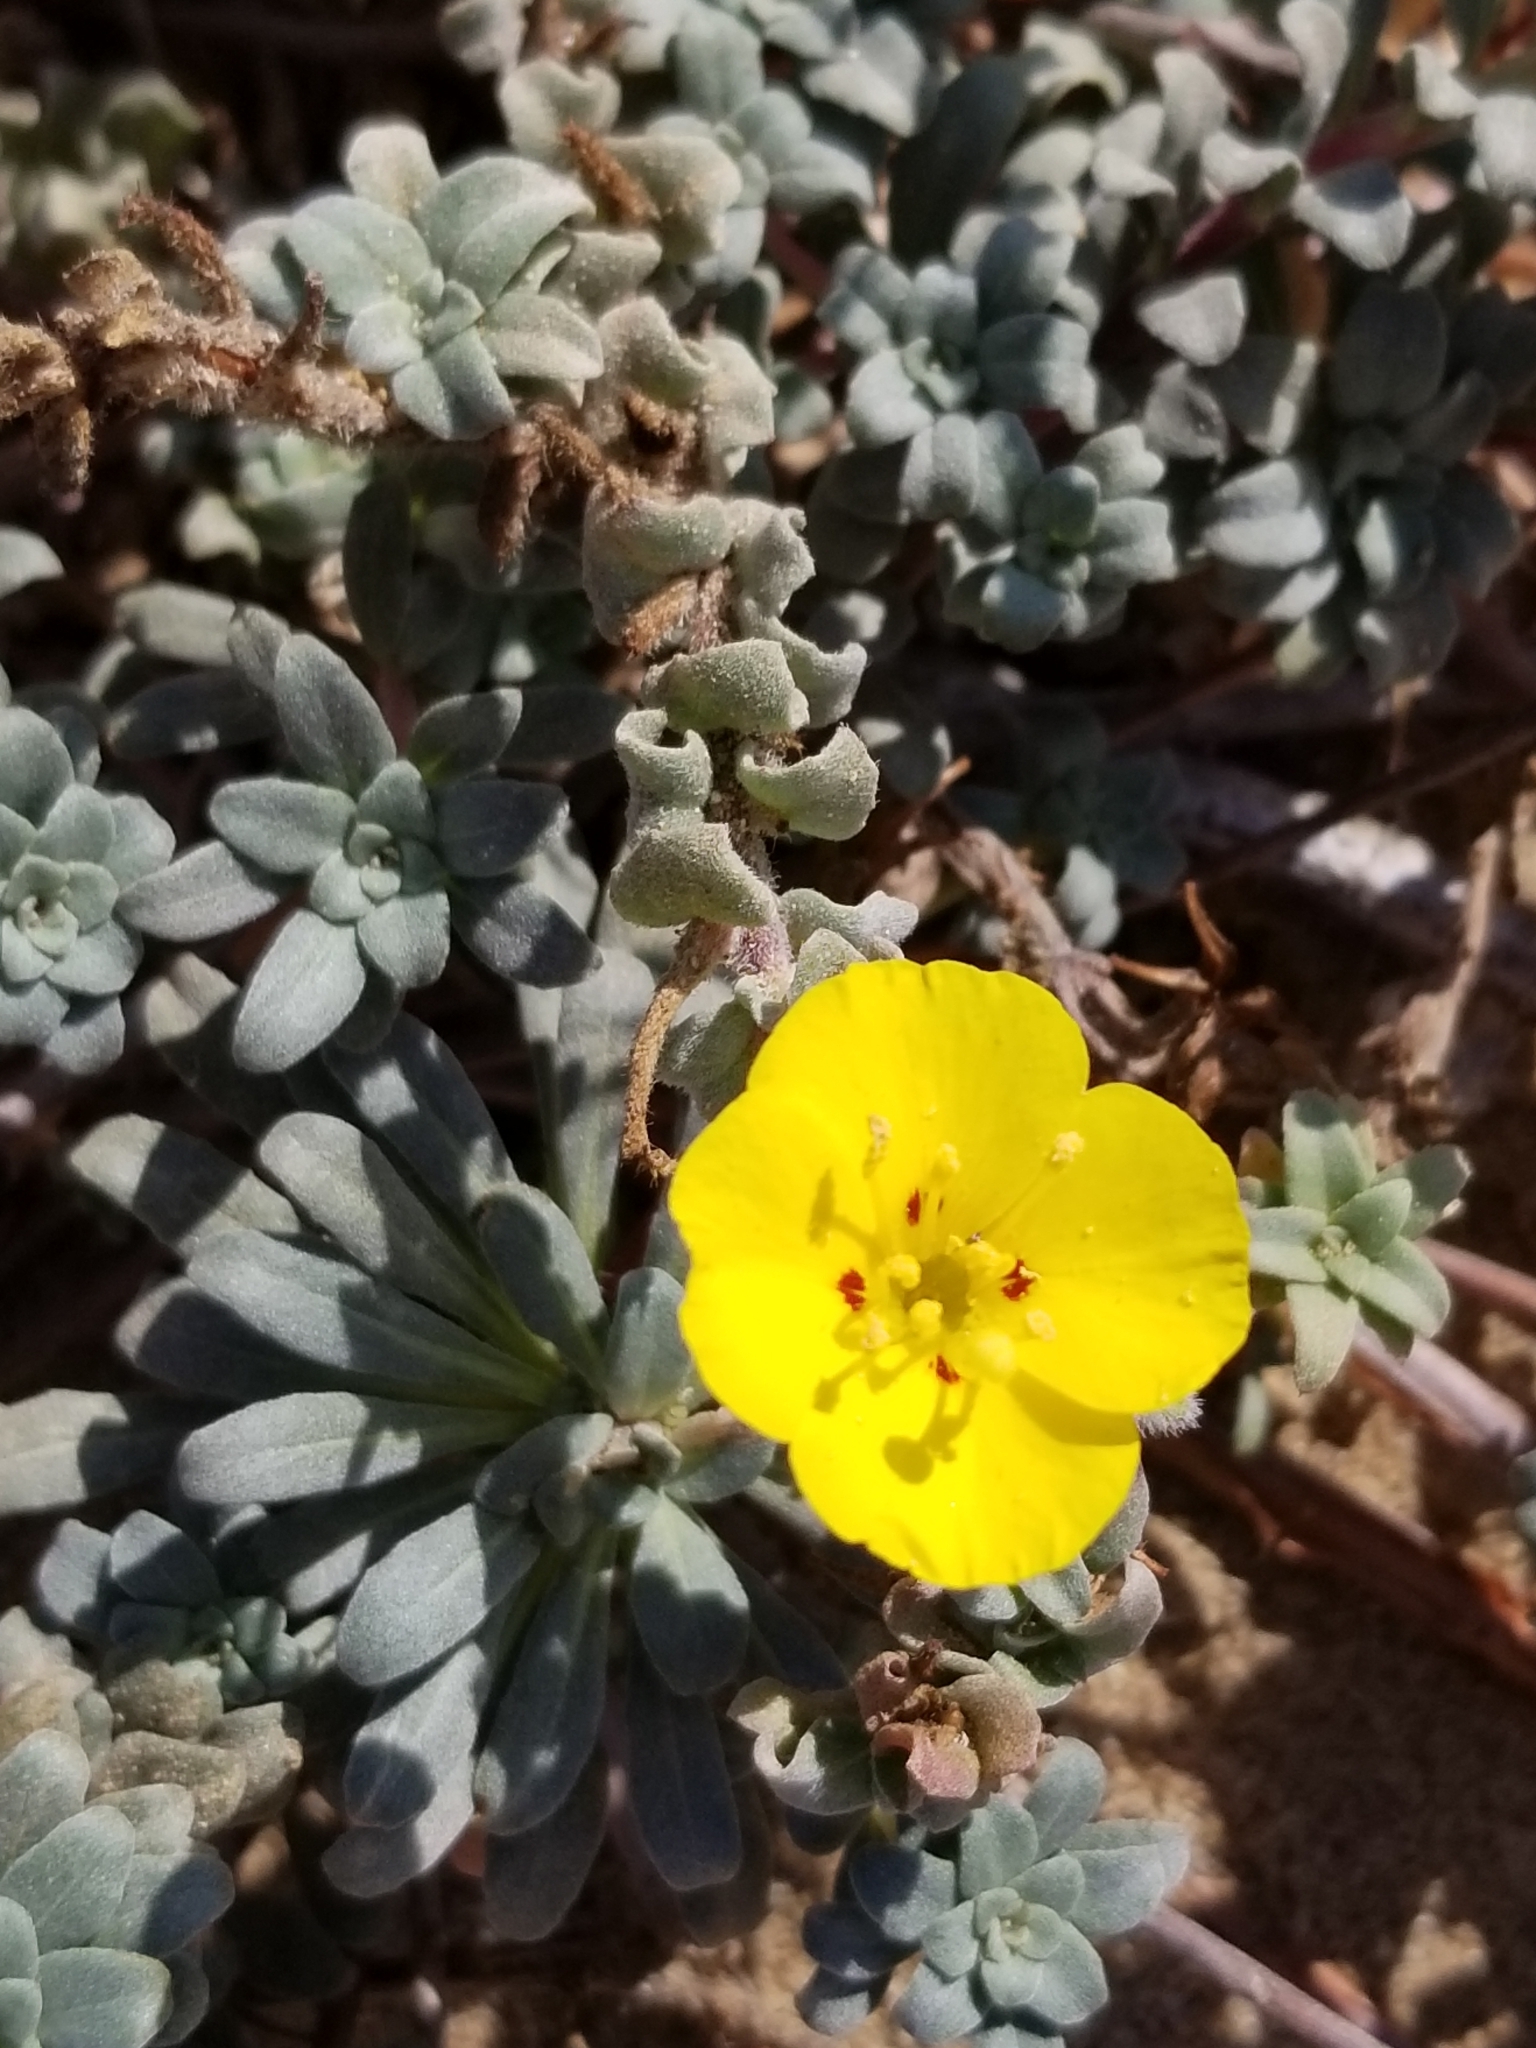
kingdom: Plantae
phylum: Tracheophyta
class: Magnoliopsida
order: Myrtales
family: Onagraceae
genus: Camissoniopsis
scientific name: Camissoniopsis cheiranthifolia
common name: Beach suncup
